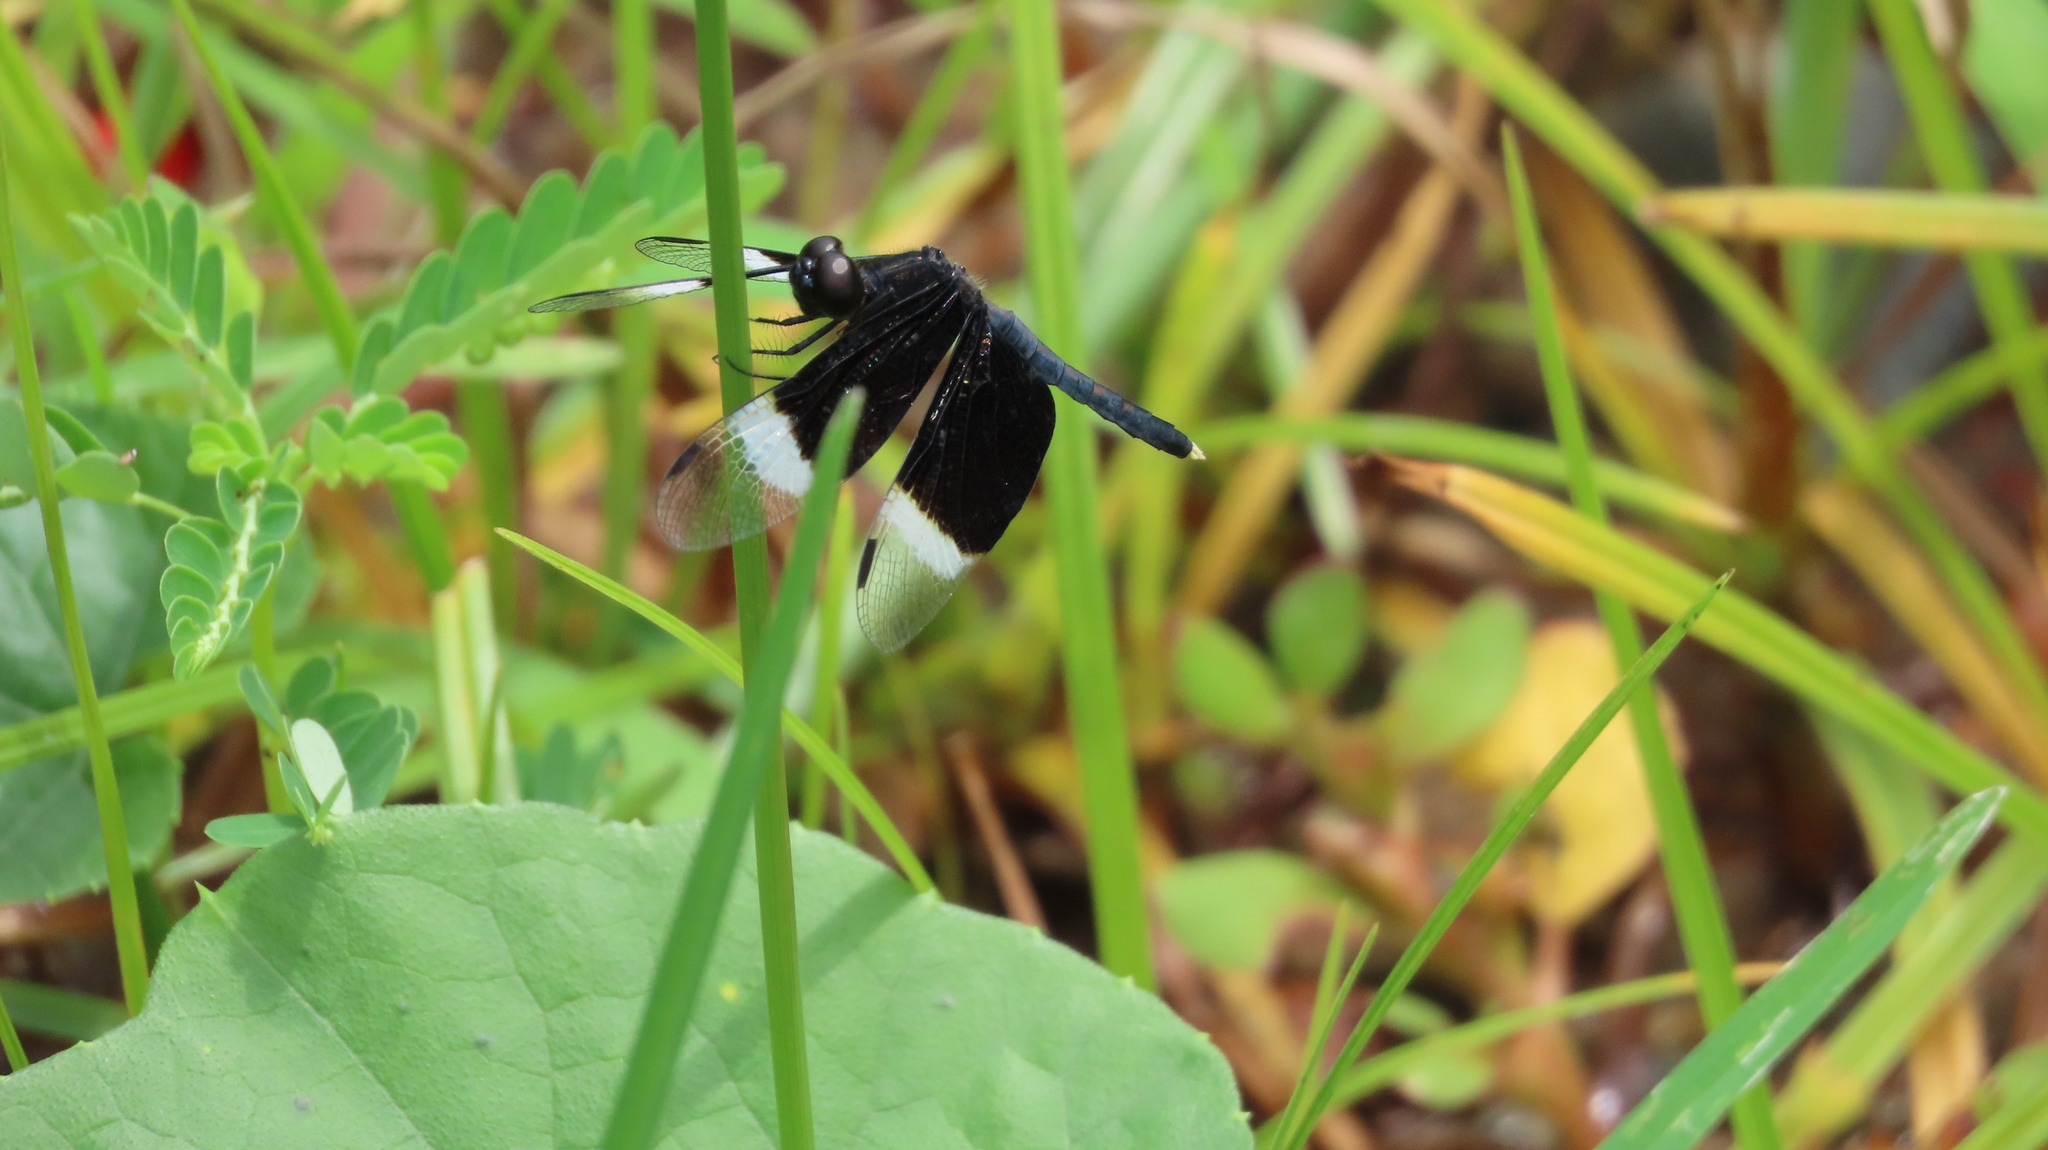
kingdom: Animalia
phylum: Arthropoda
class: Insecta
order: Odonata
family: Libellulidae
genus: Neurothemis
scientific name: Neurothemis tullia
